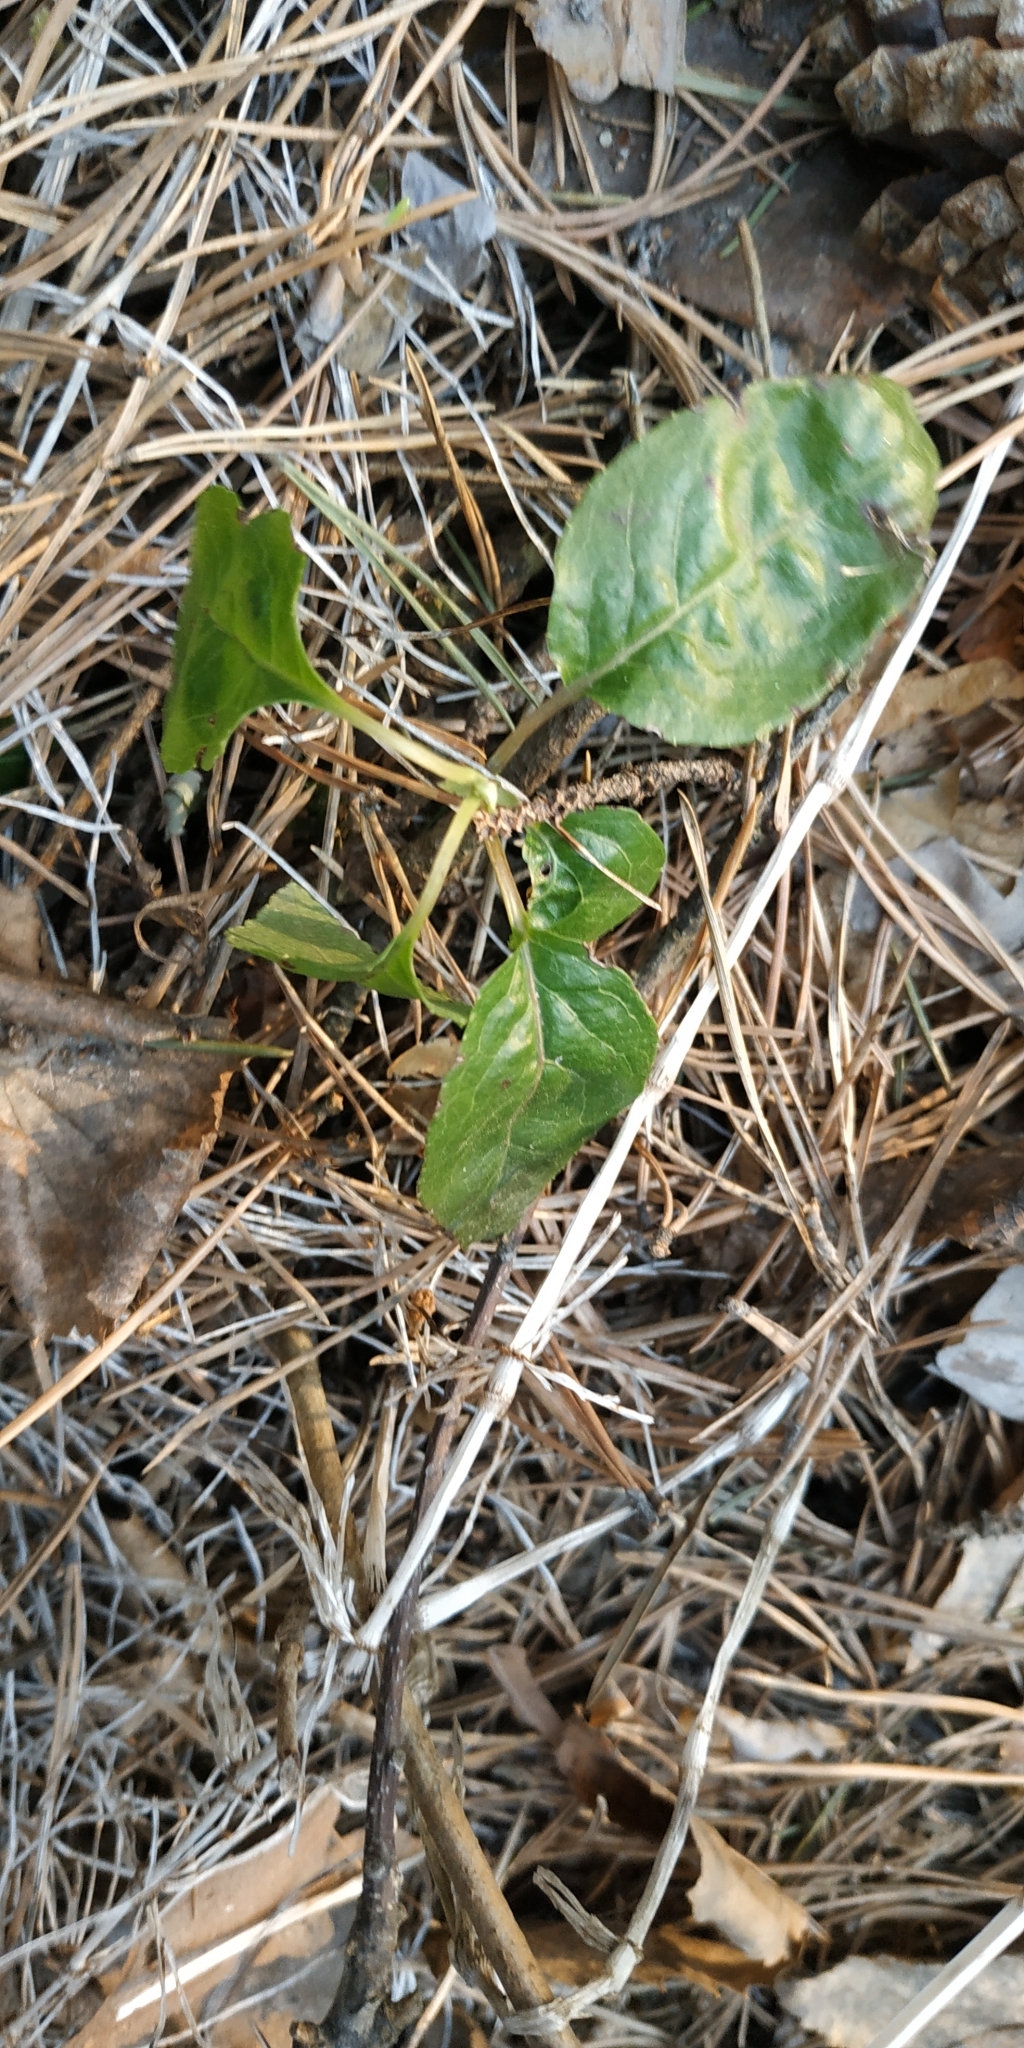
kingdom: Plantae
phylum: Tracheophyta
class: Magnoliopsida
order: Ericales
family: Ericaceae
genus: Orthilia
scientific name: Orthilia secunda
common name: One-sided orthilia
